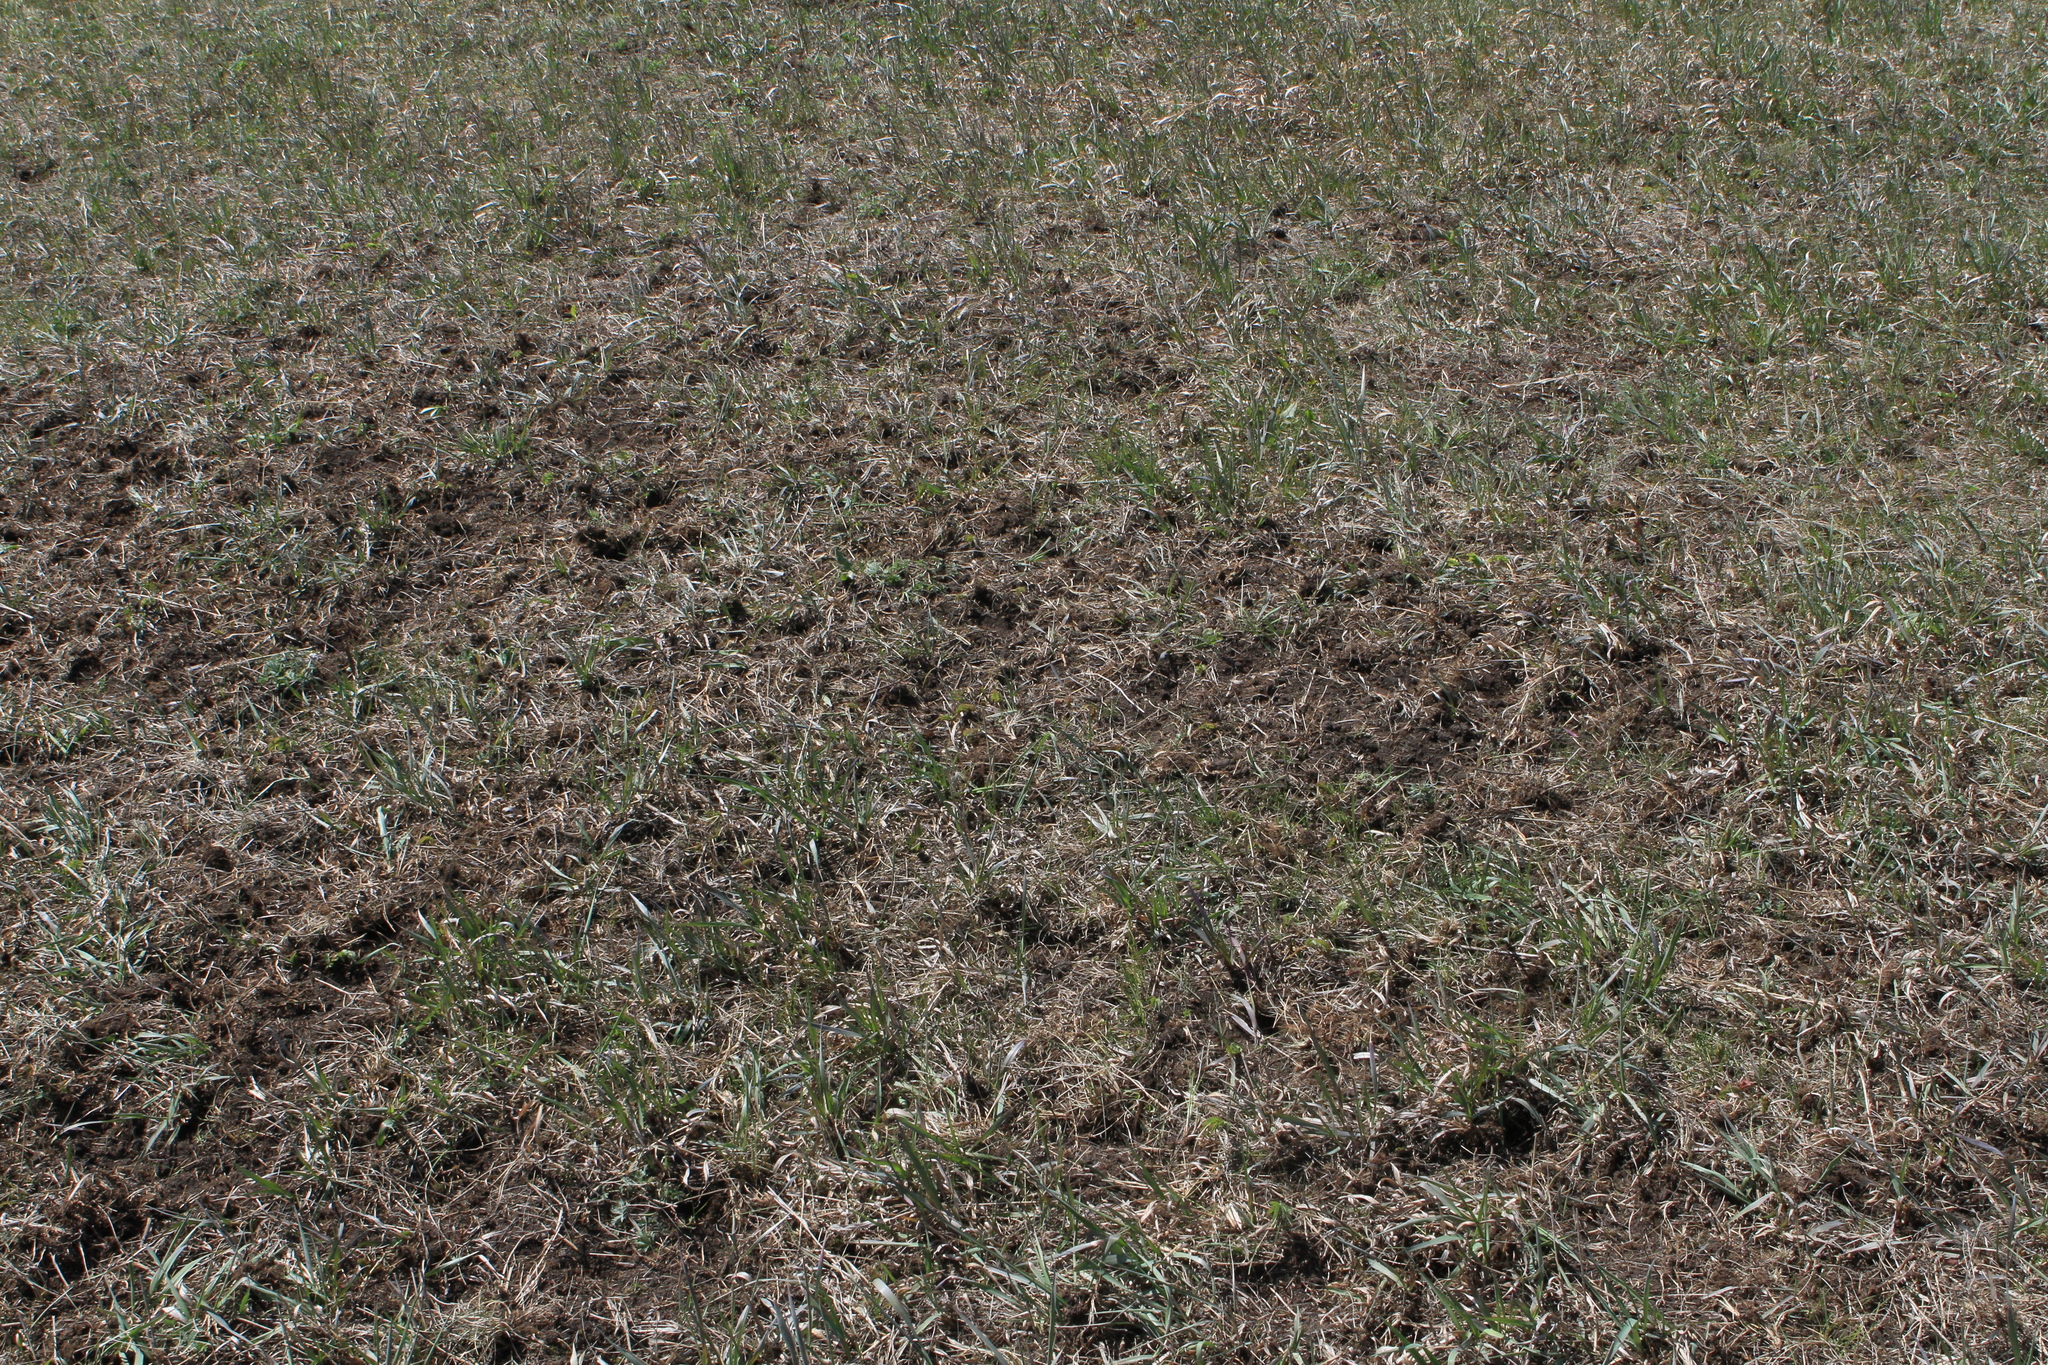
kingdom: Animalia
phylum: Chordata
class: Aves
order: Passeriformes
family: Corvidae
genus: Corvus
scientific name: Corvus frugilegus
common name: Rook
